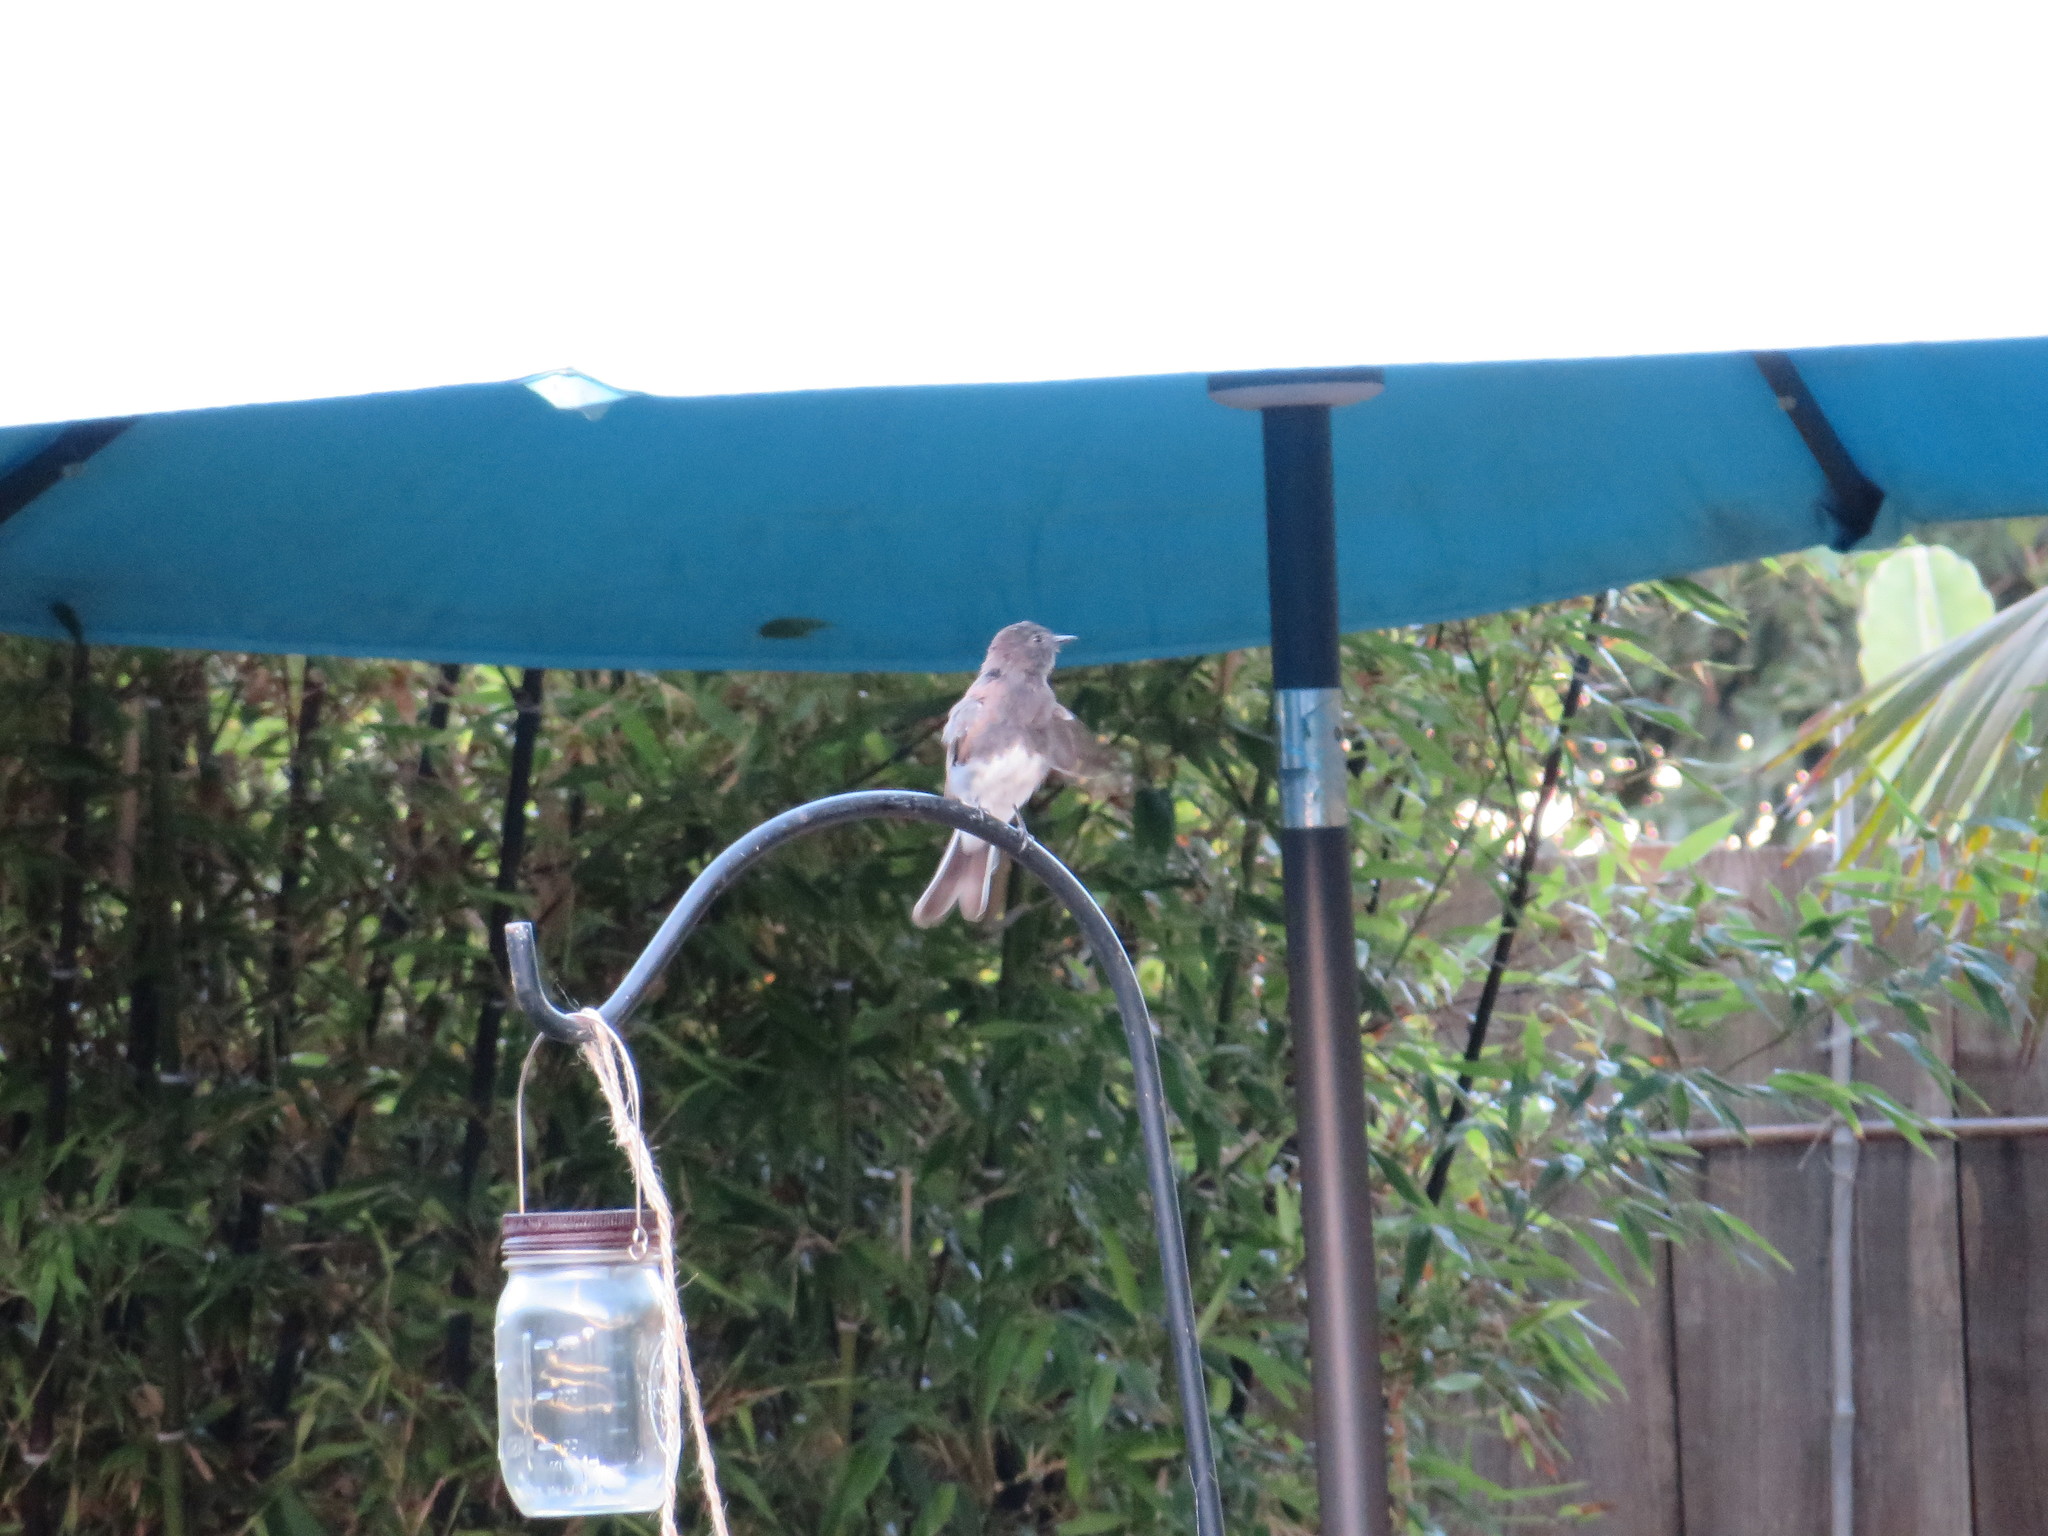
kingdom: Animalia
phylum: Chordata
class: Aves
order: Passeriformes
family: Tyrannidae
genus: Sayornis
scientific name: Sayornis nigricans
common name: Black phoebe
